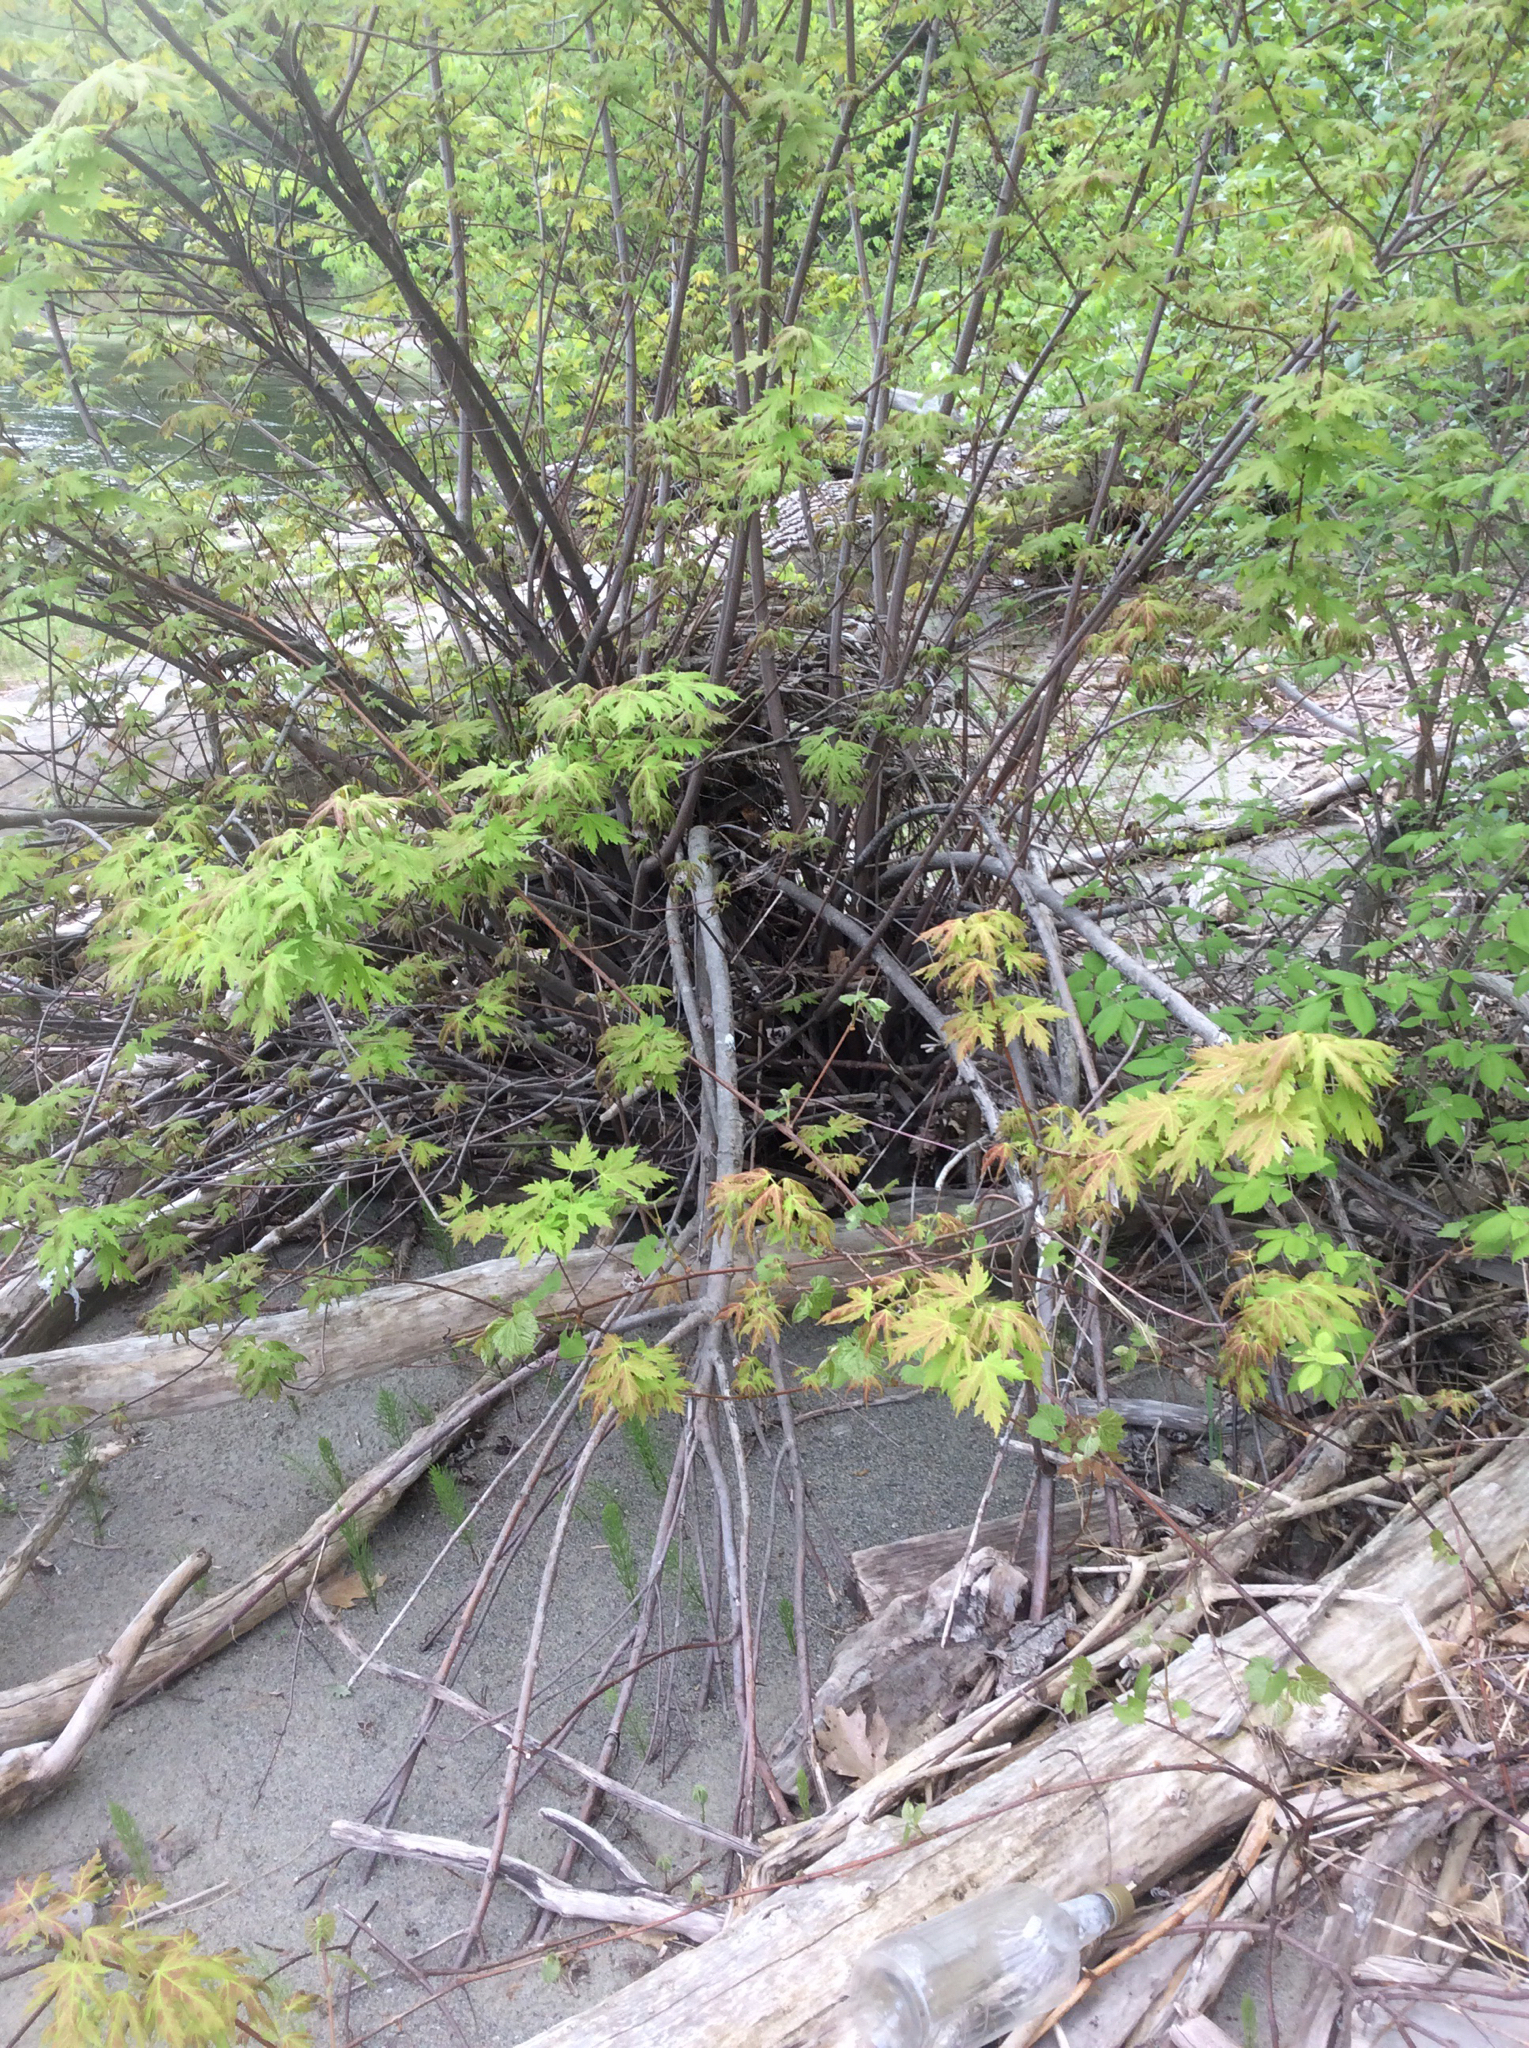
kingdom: Plantae
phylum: Tracheophyta
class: Magnoliopsida
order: Sapindales
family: Sapindaceae
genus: Acer
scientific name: Acer saccharinum
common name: Silver maple
